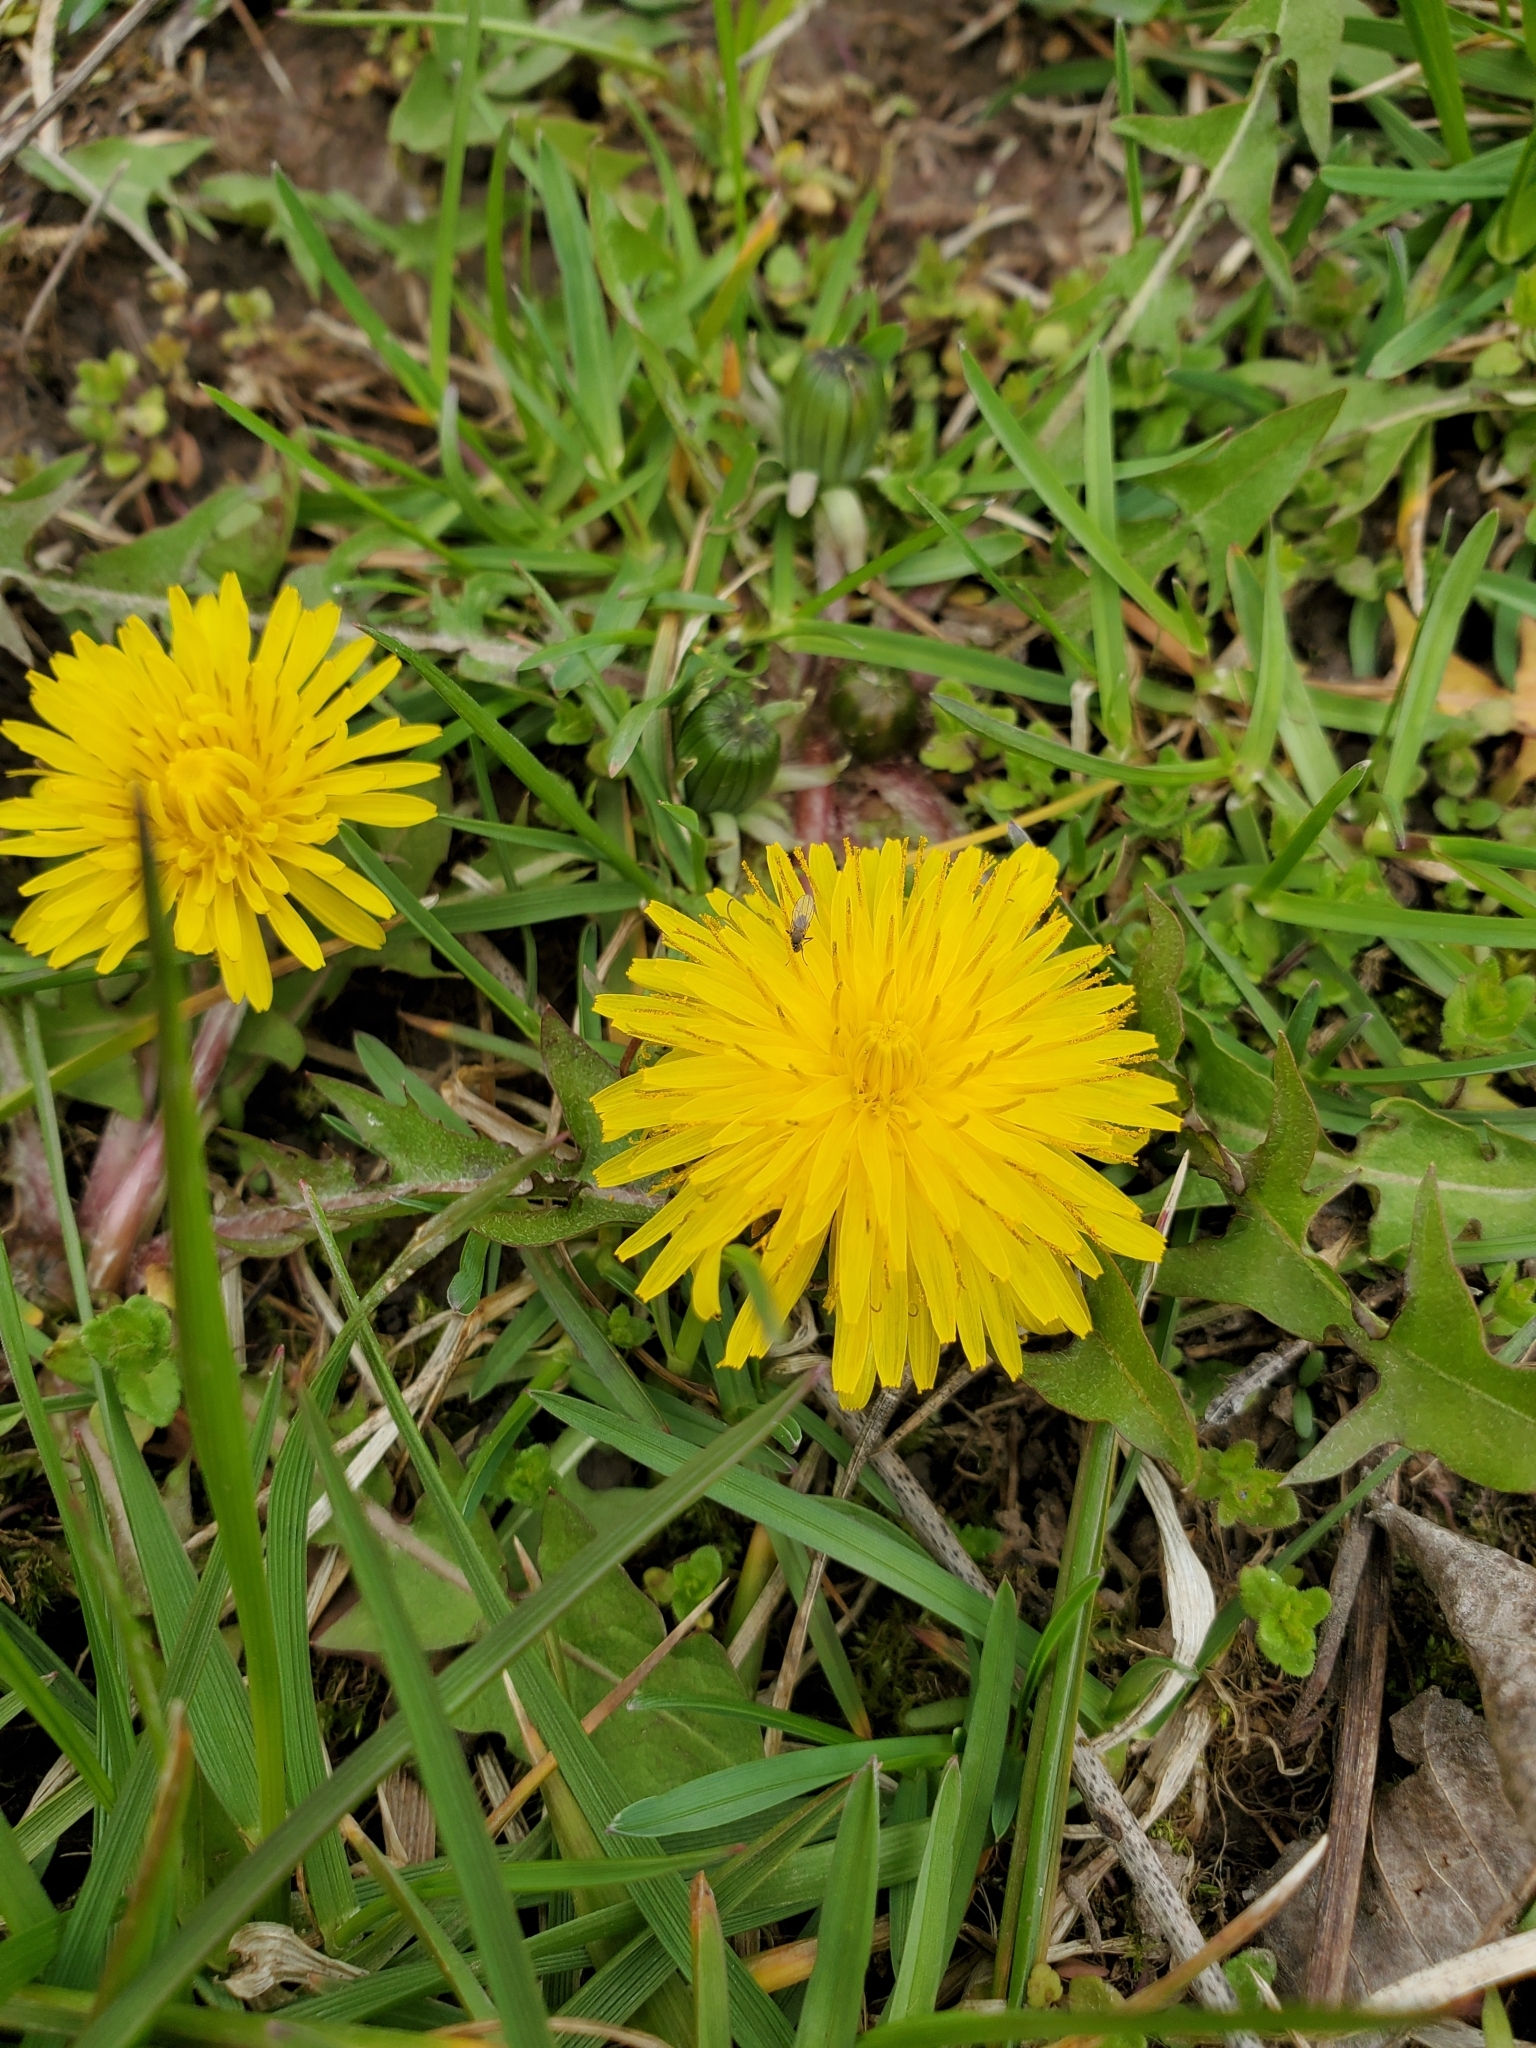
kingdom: Plantae
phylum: Tracheophyta
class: Magnoliopsida
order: Asterales
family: Asteraceae
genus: Taraxacum
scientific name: Taraxacum officinale
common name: Common dandelion
